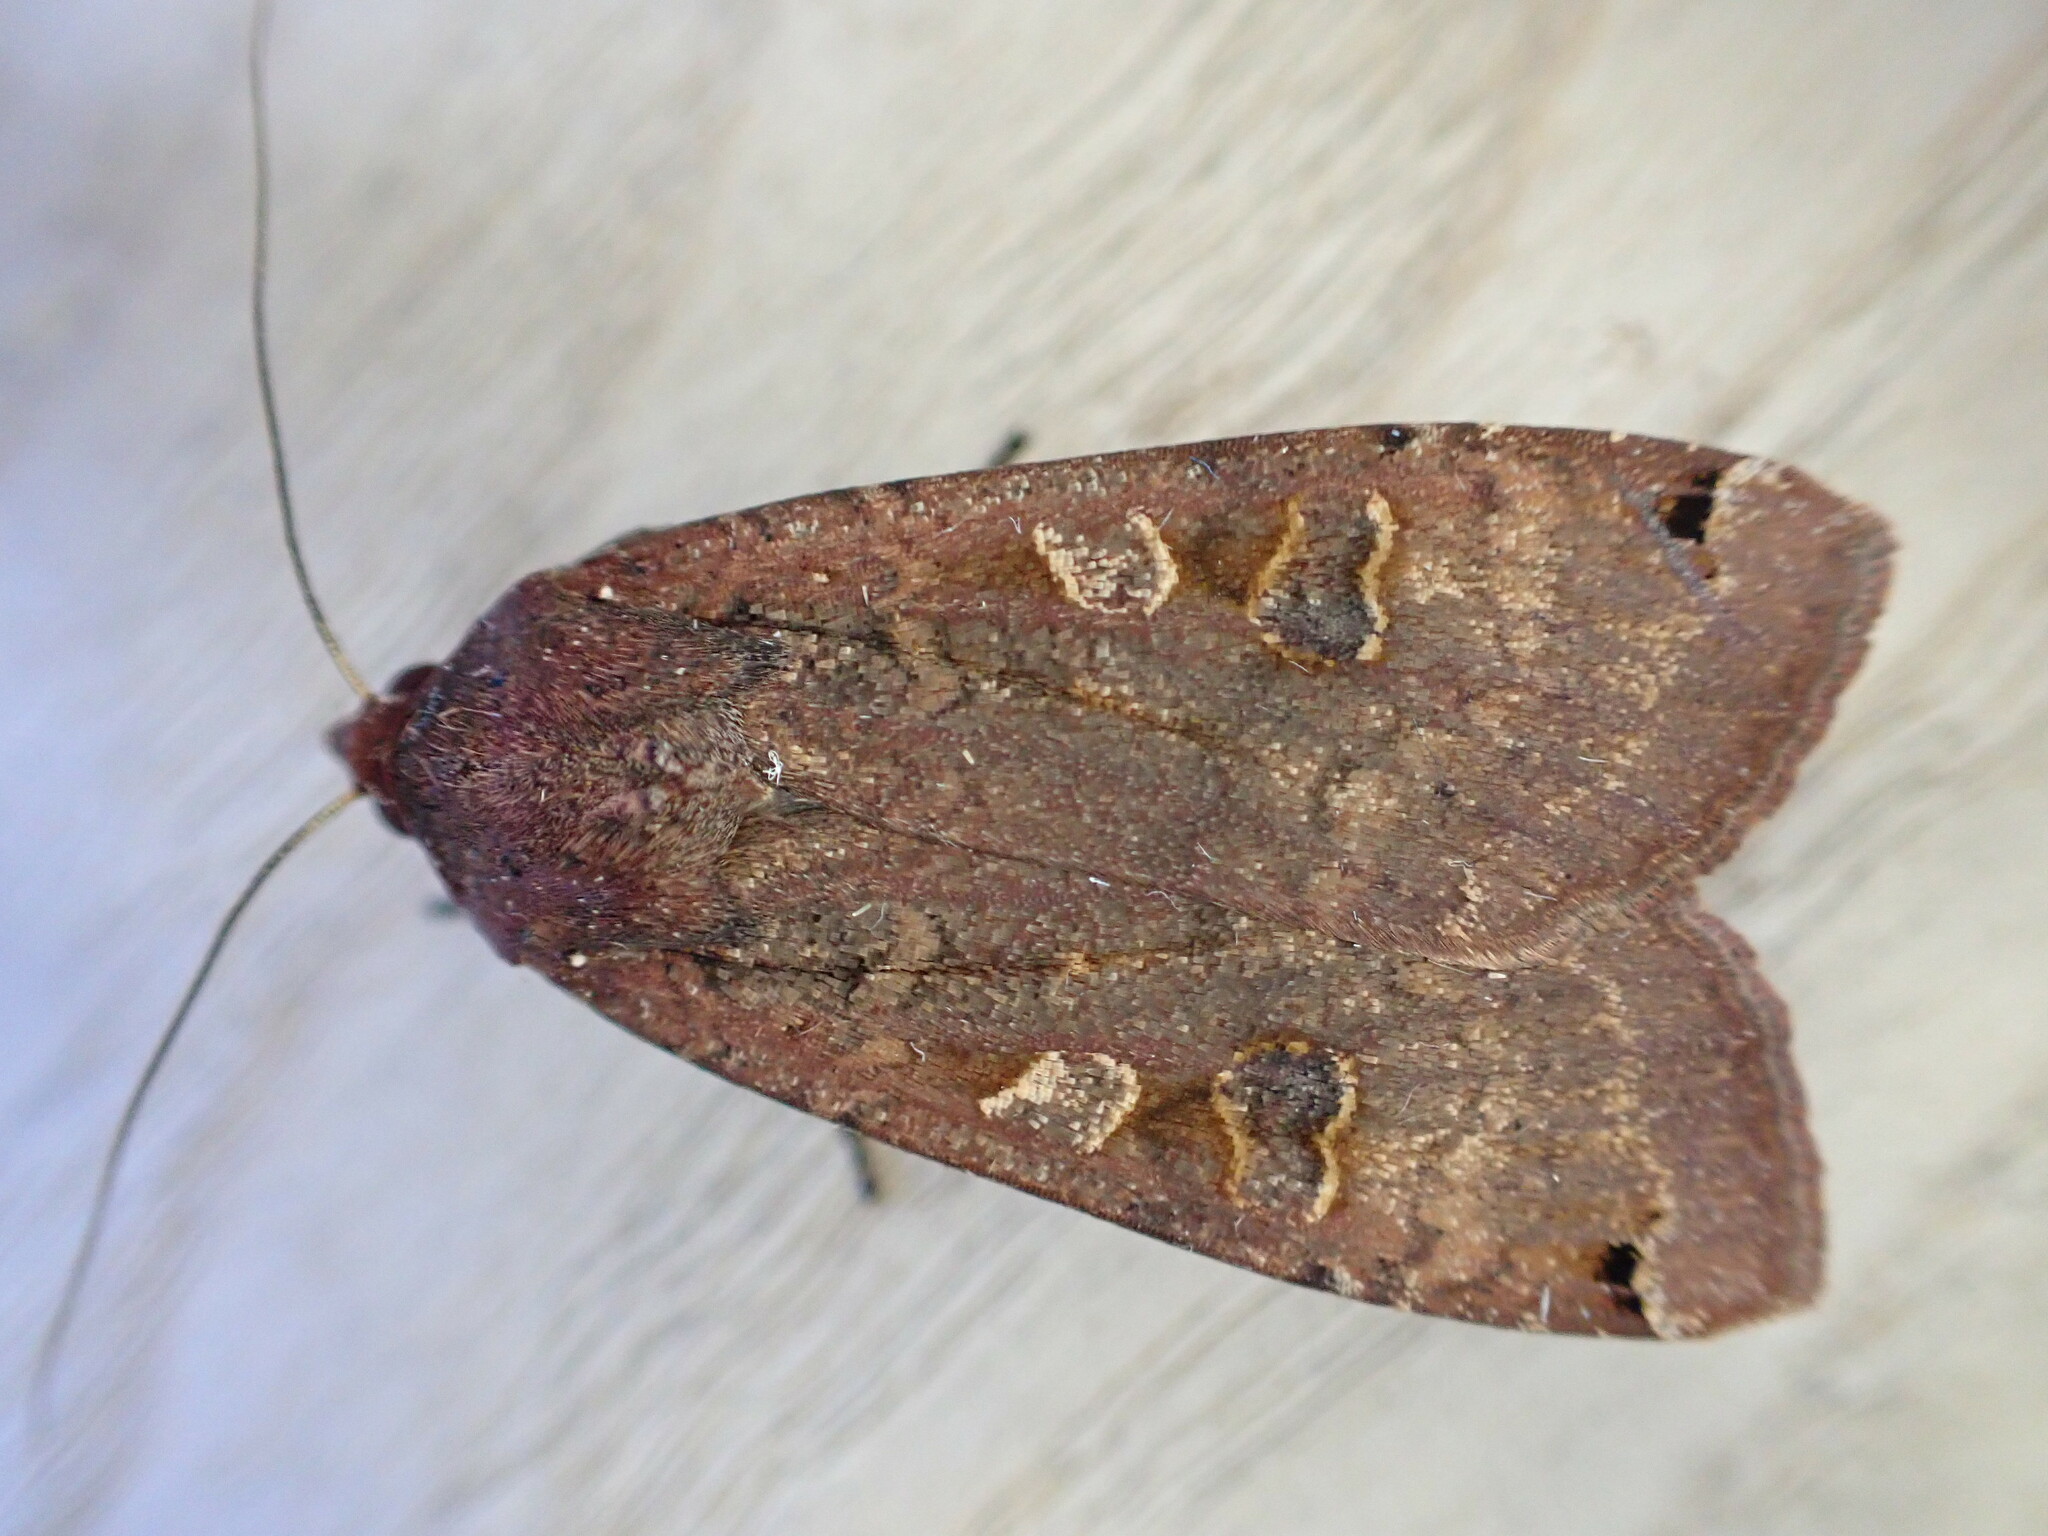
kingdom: Animalia
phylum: Arthropoda
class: Insecta
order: Lepidoptera
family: Noctuidae
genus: Noctua
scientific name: Noctua pronuba
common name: Large yellow underwing
